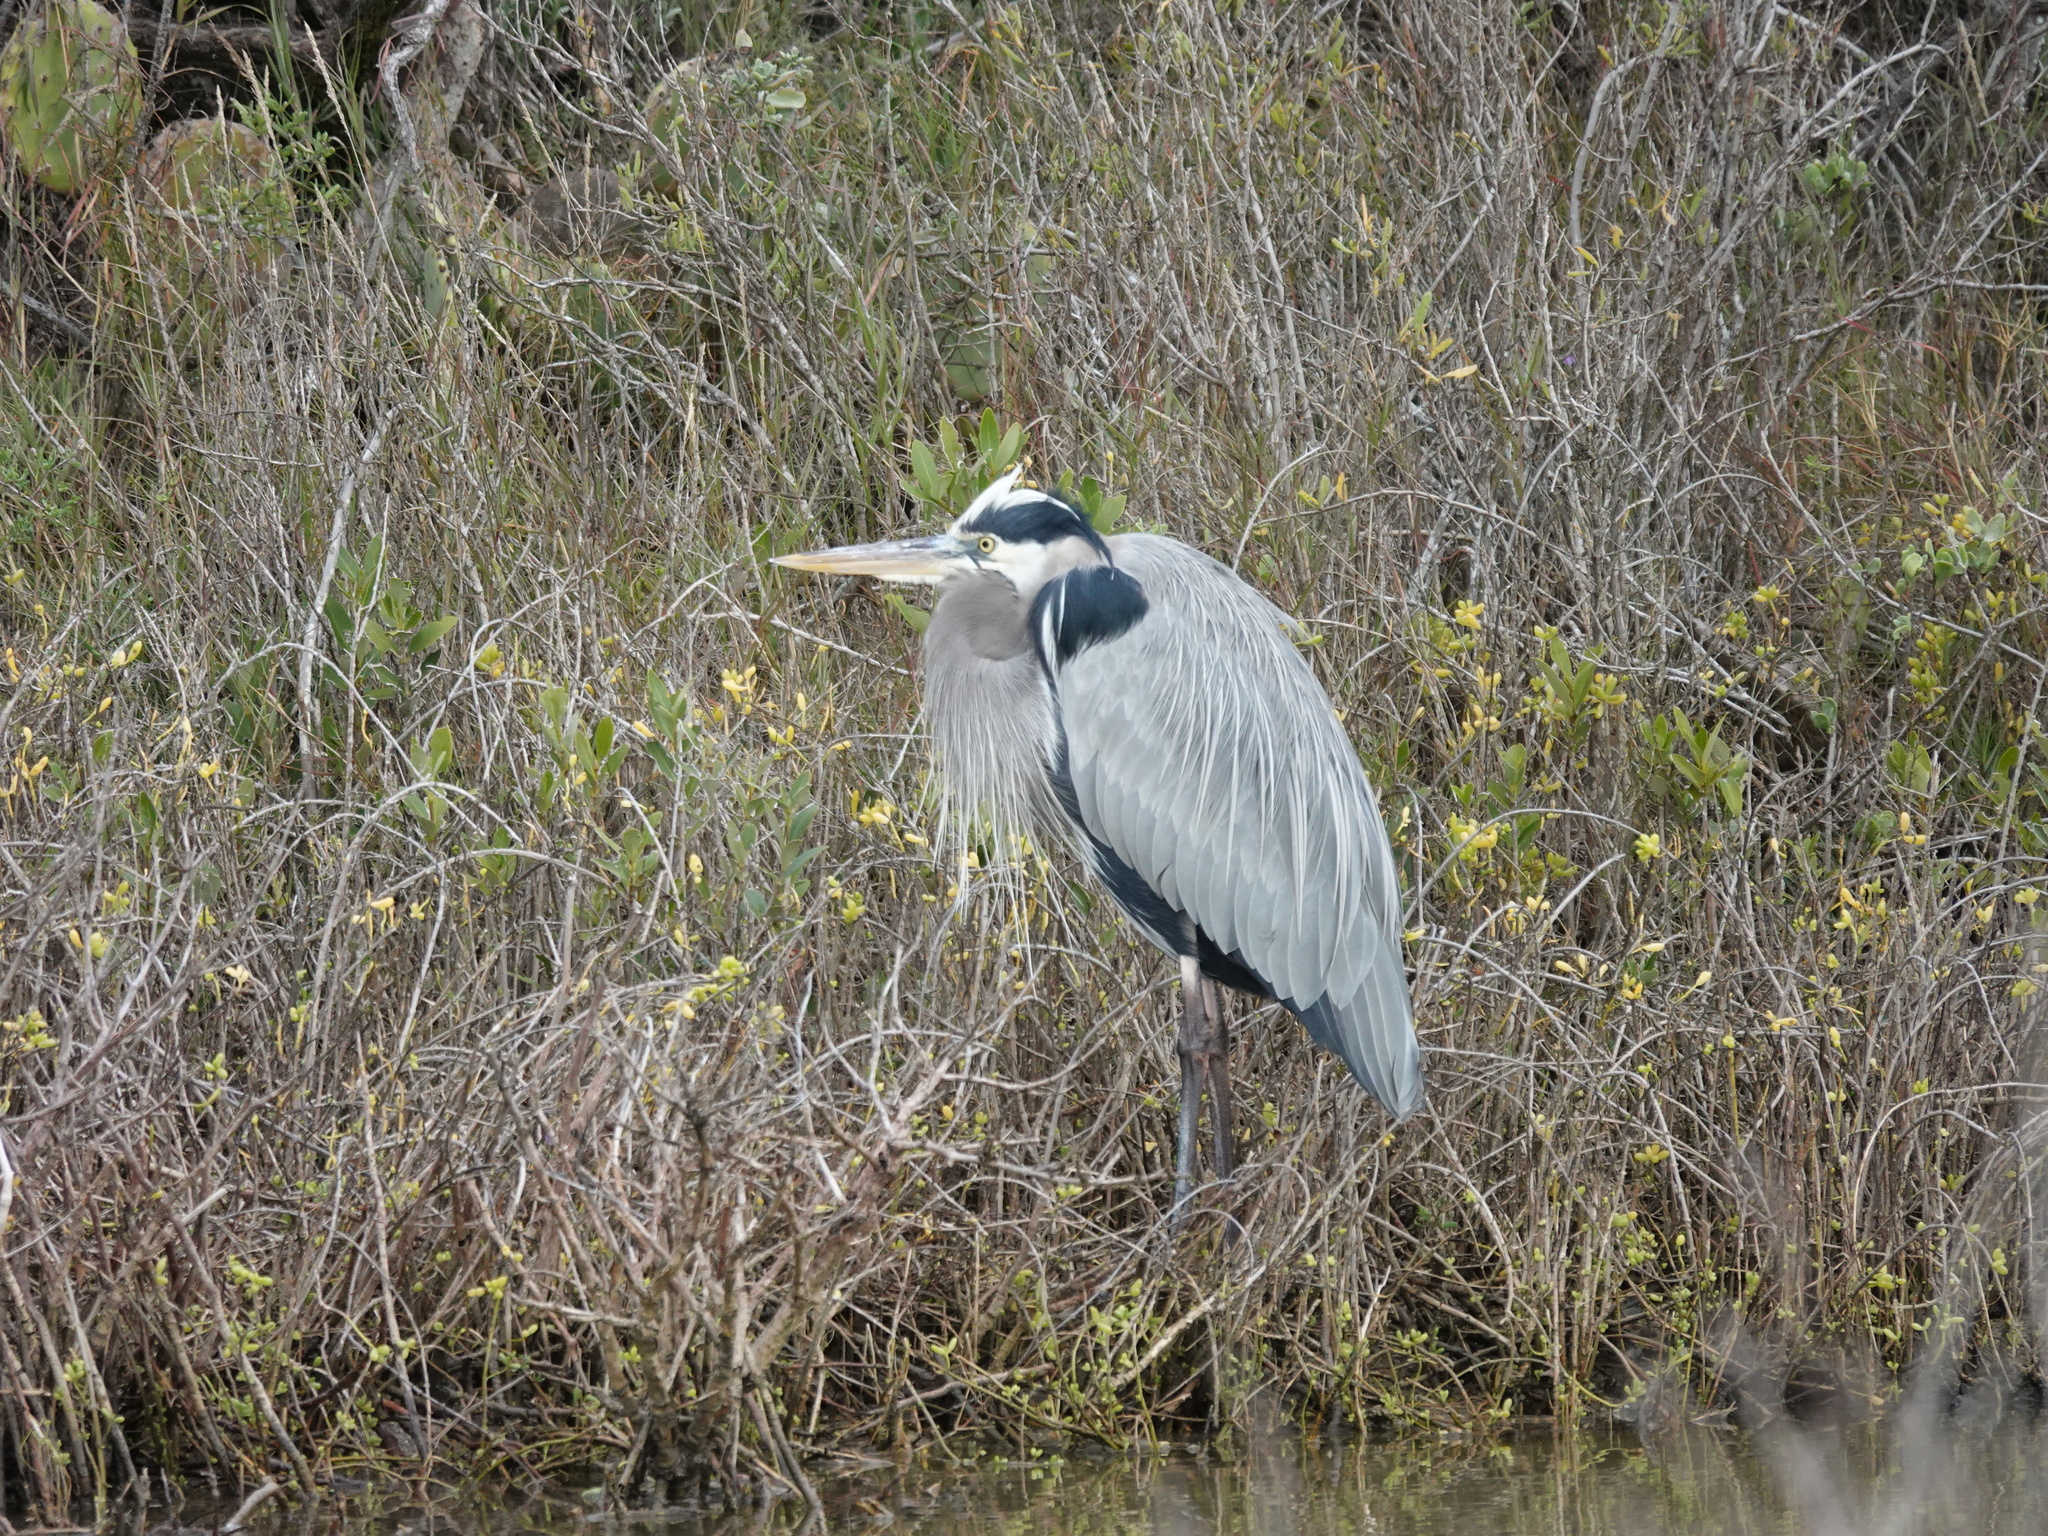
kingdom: Animalia
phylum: Chordata
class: Aves
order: Pelecaniformes
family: Ardeidae
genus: Ardea
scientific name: Ardea herodias
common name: Great blue heron
